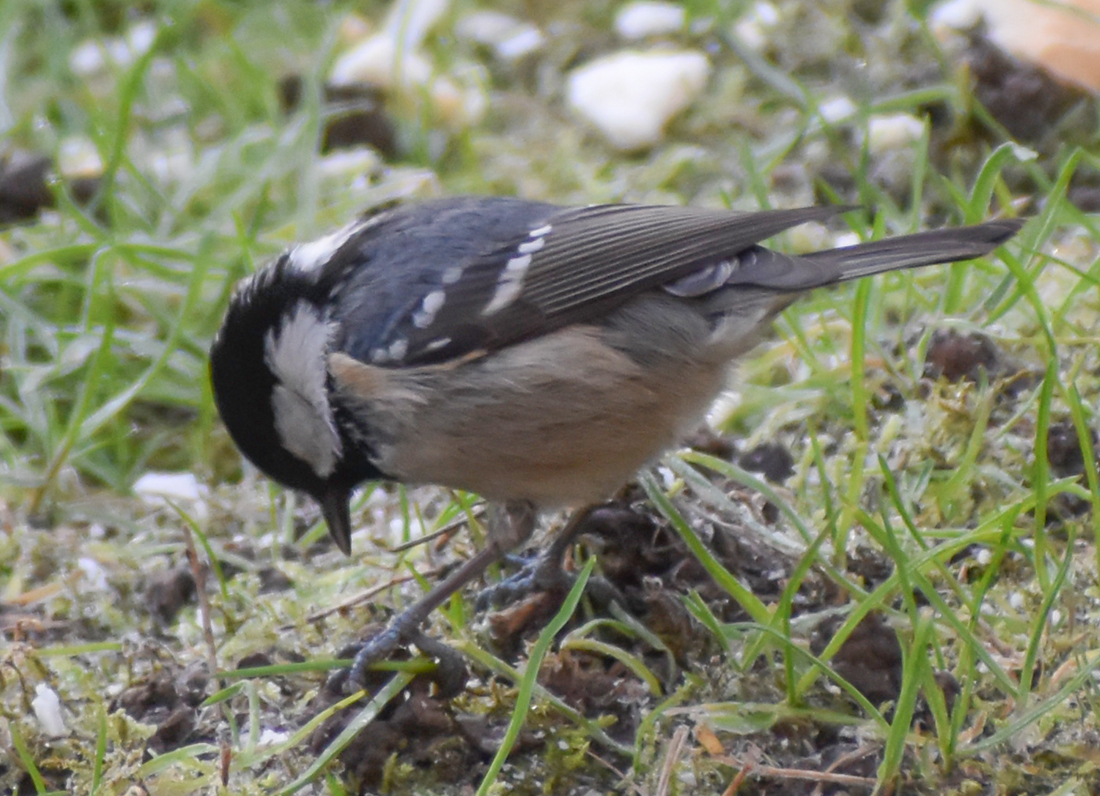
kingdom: Animalia
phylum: Chordata
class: Aves
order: Passeriformes
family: Paridae
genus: Periparus
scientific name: Periparus ater
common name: Coal tit
